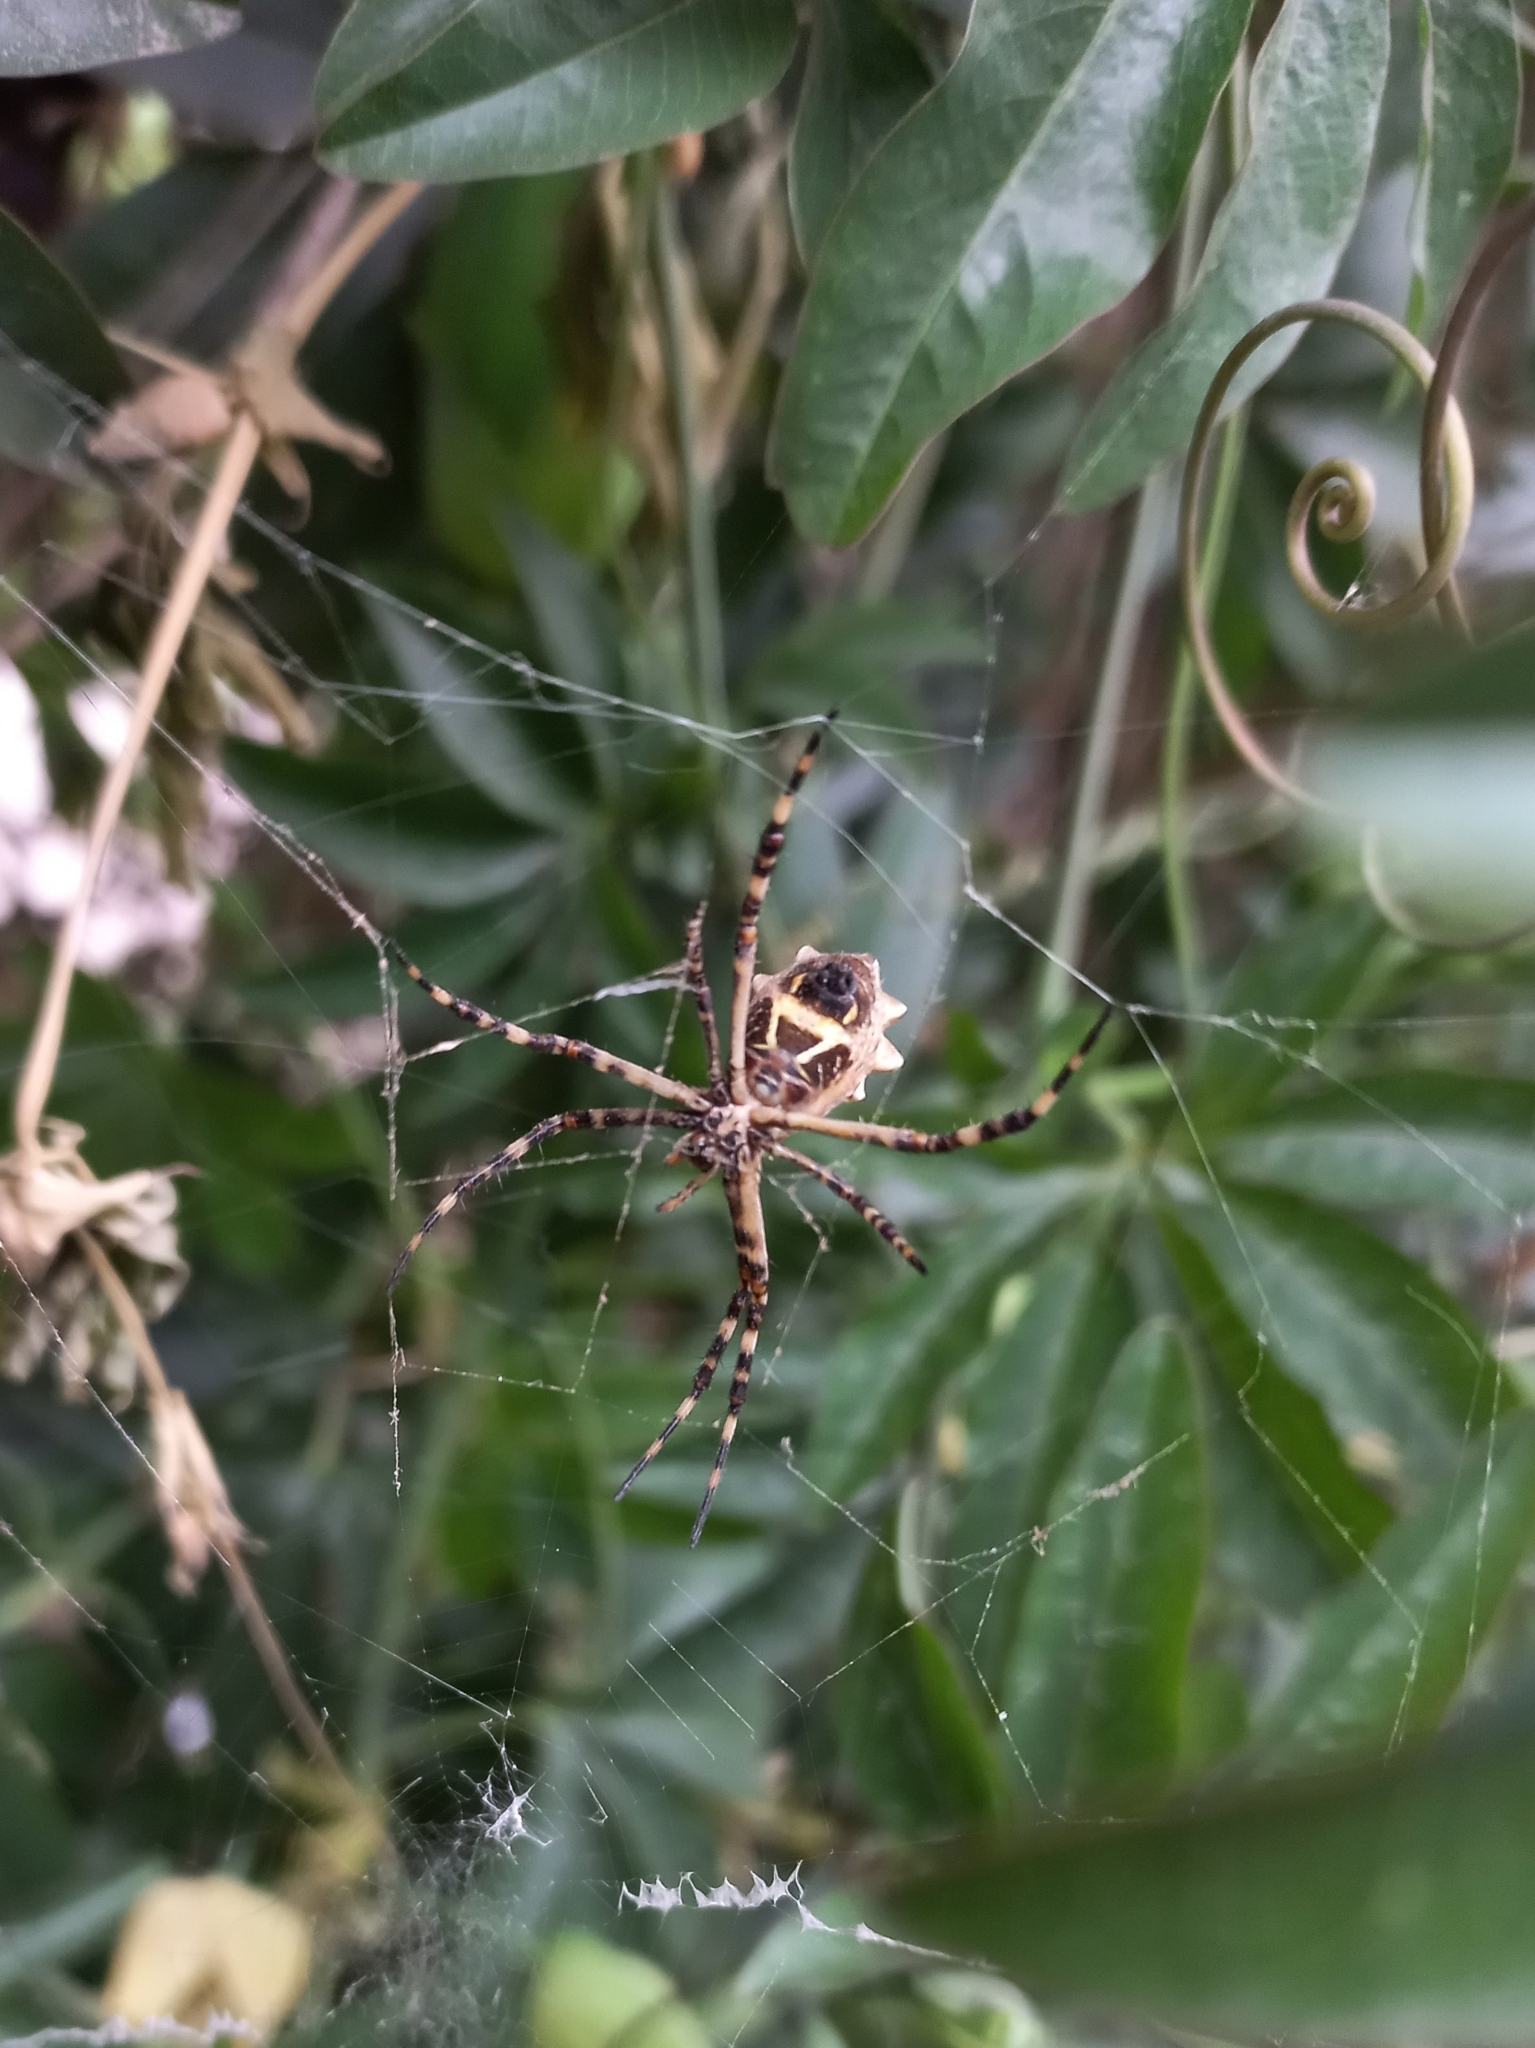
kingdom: Animalia
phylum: Arthropoda
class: Arachnida
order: Araneae
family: Araneidae
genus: Argiope
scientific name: Argiope argentata
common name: Orb weavers
